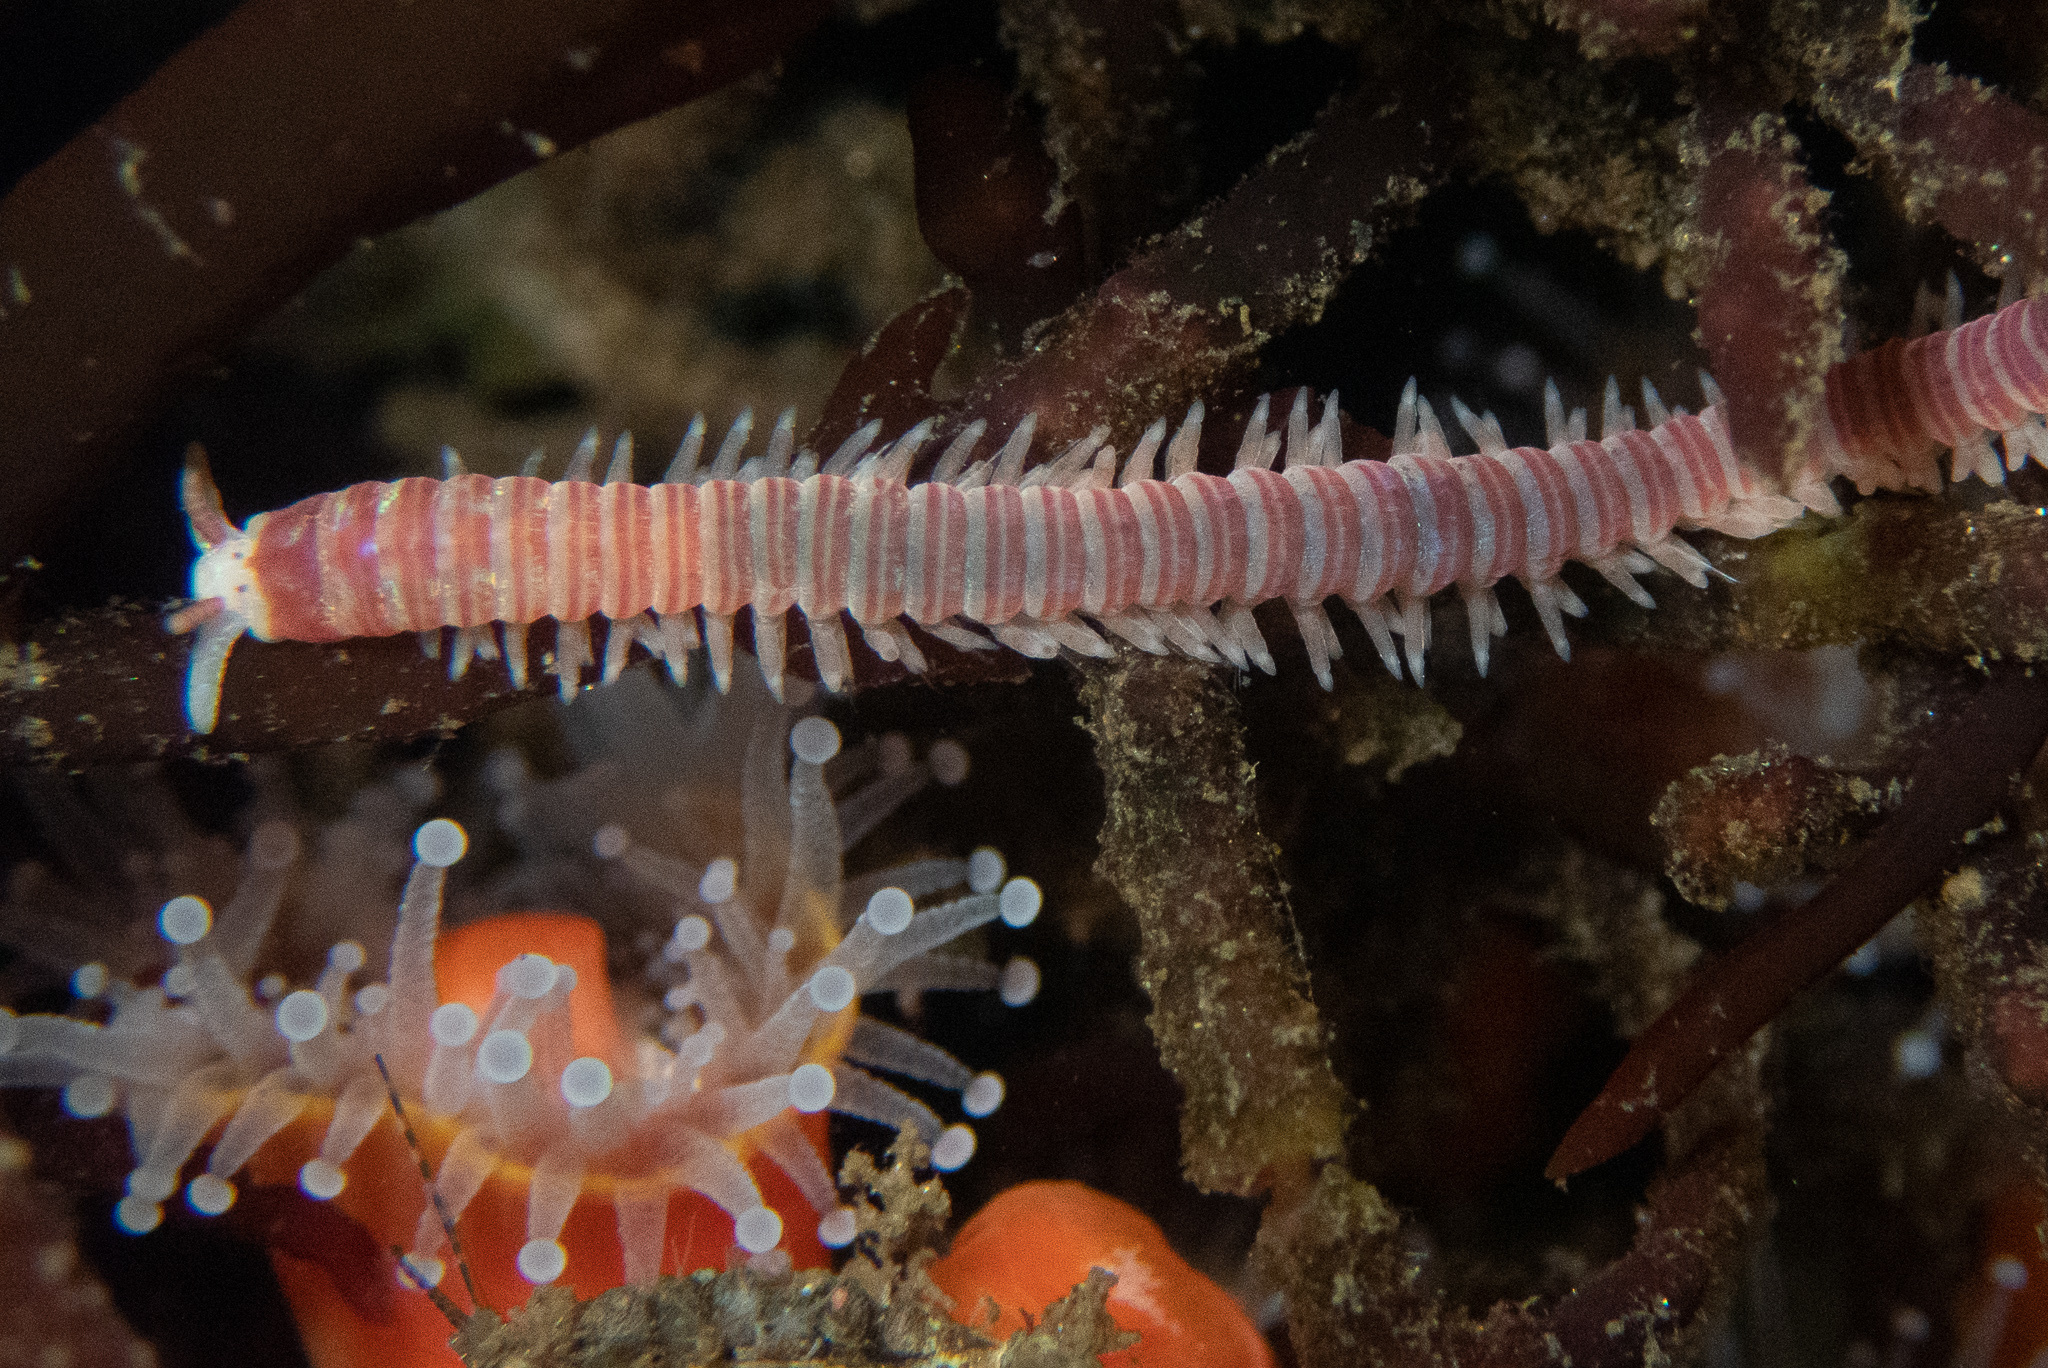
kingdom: Animalia
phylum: Annelida
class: Polychaeta
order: Eunicida
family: Dorvilleidae
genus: Dorvillea
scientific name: Dorvillea moniloceras
